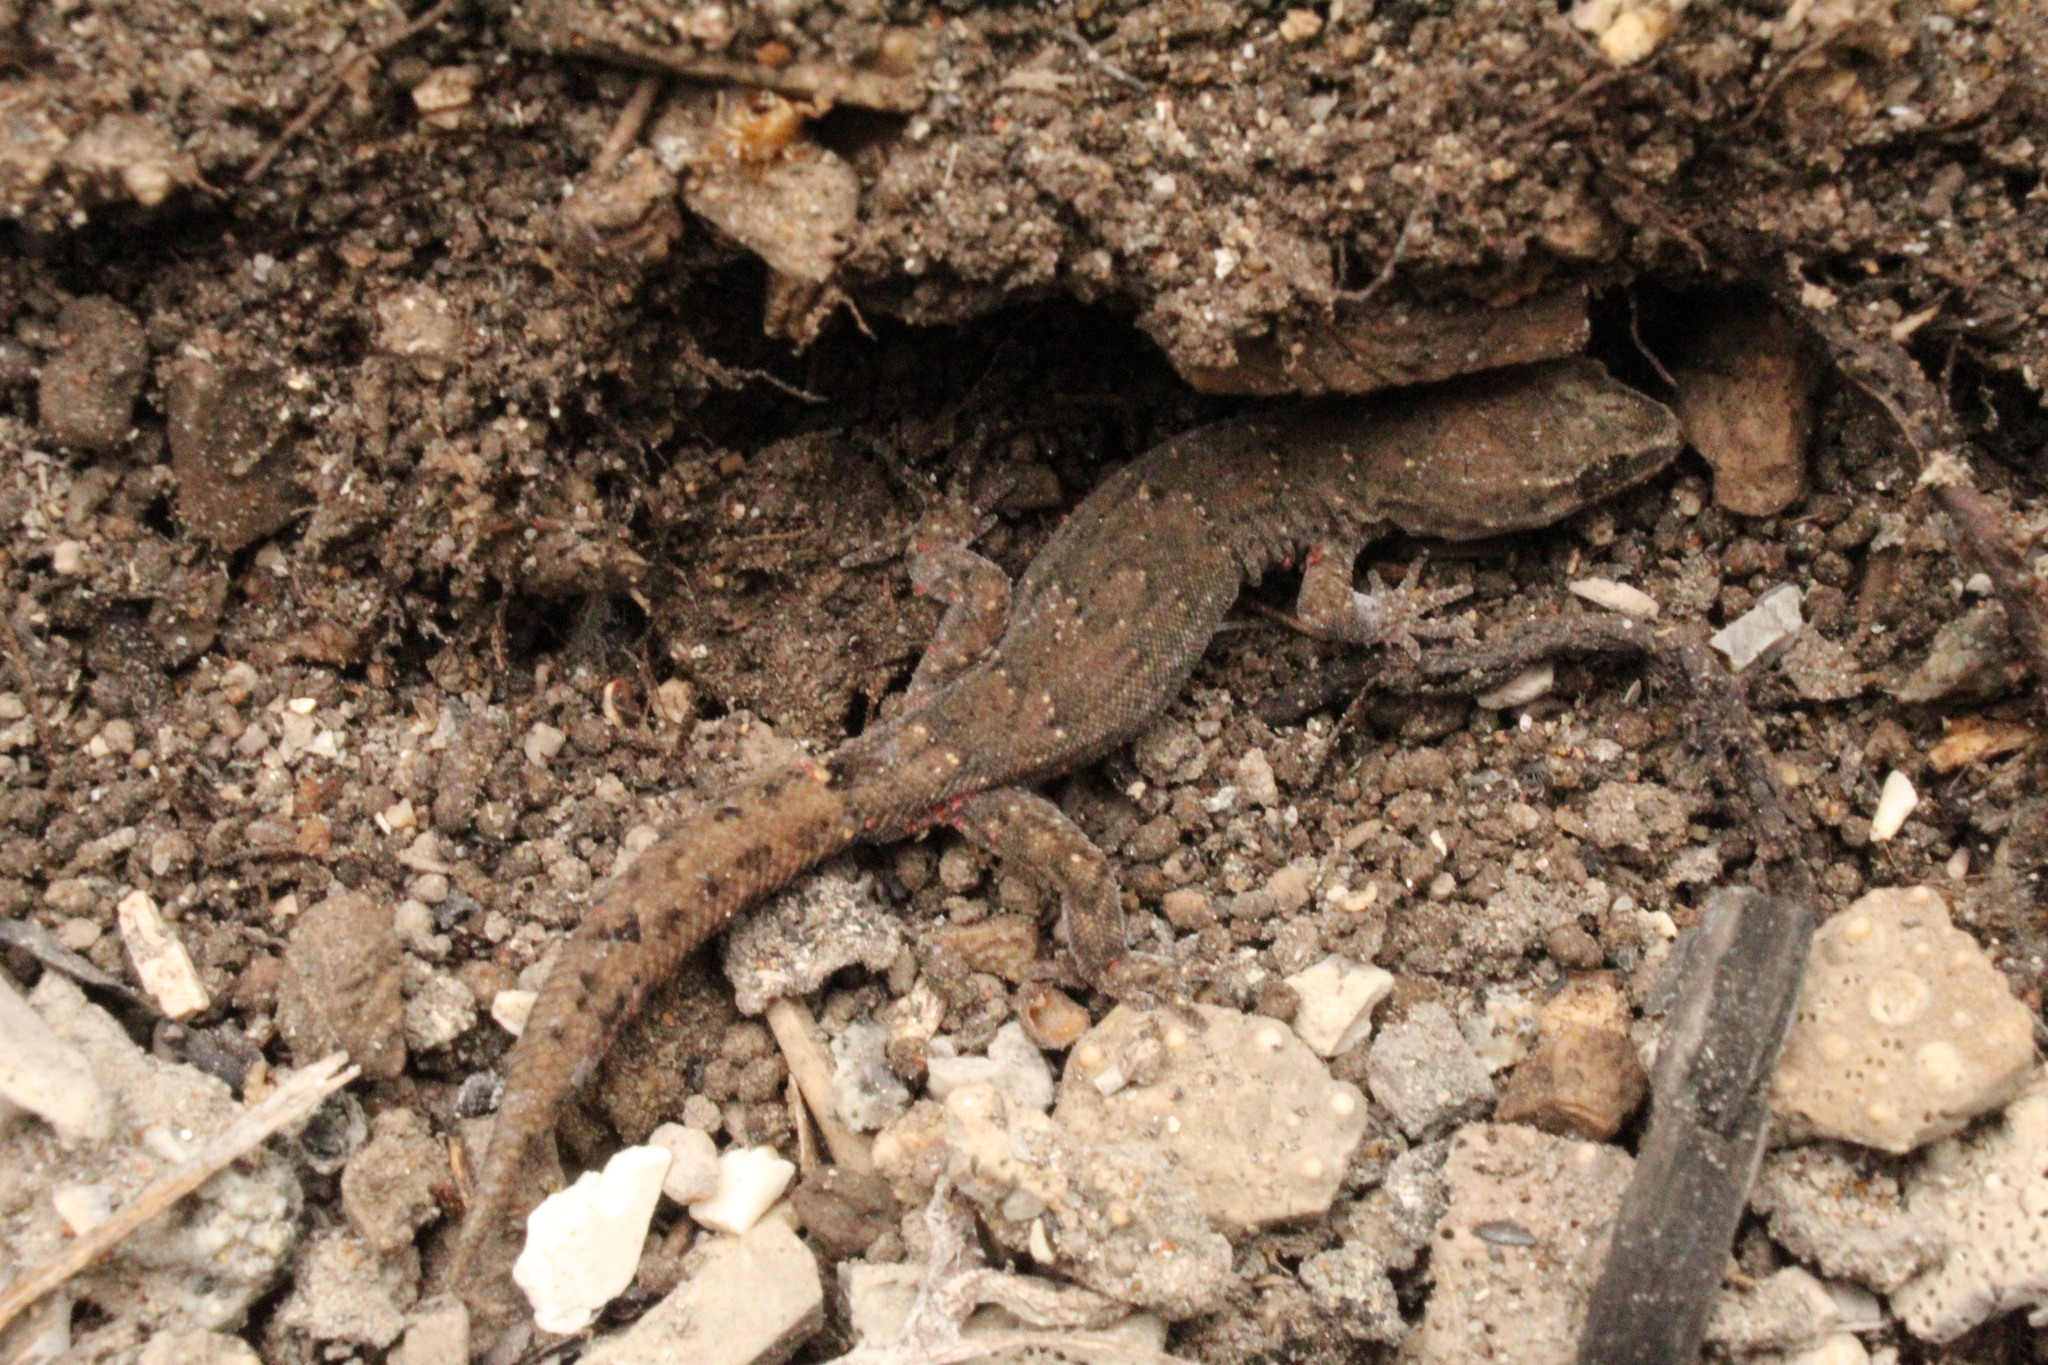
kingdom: Animalia
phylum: Chordata
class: Squamata
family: Phyllodactylidae
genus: Garthia
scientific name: Garthia gaudichaudii
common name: Chilean marked gecko
